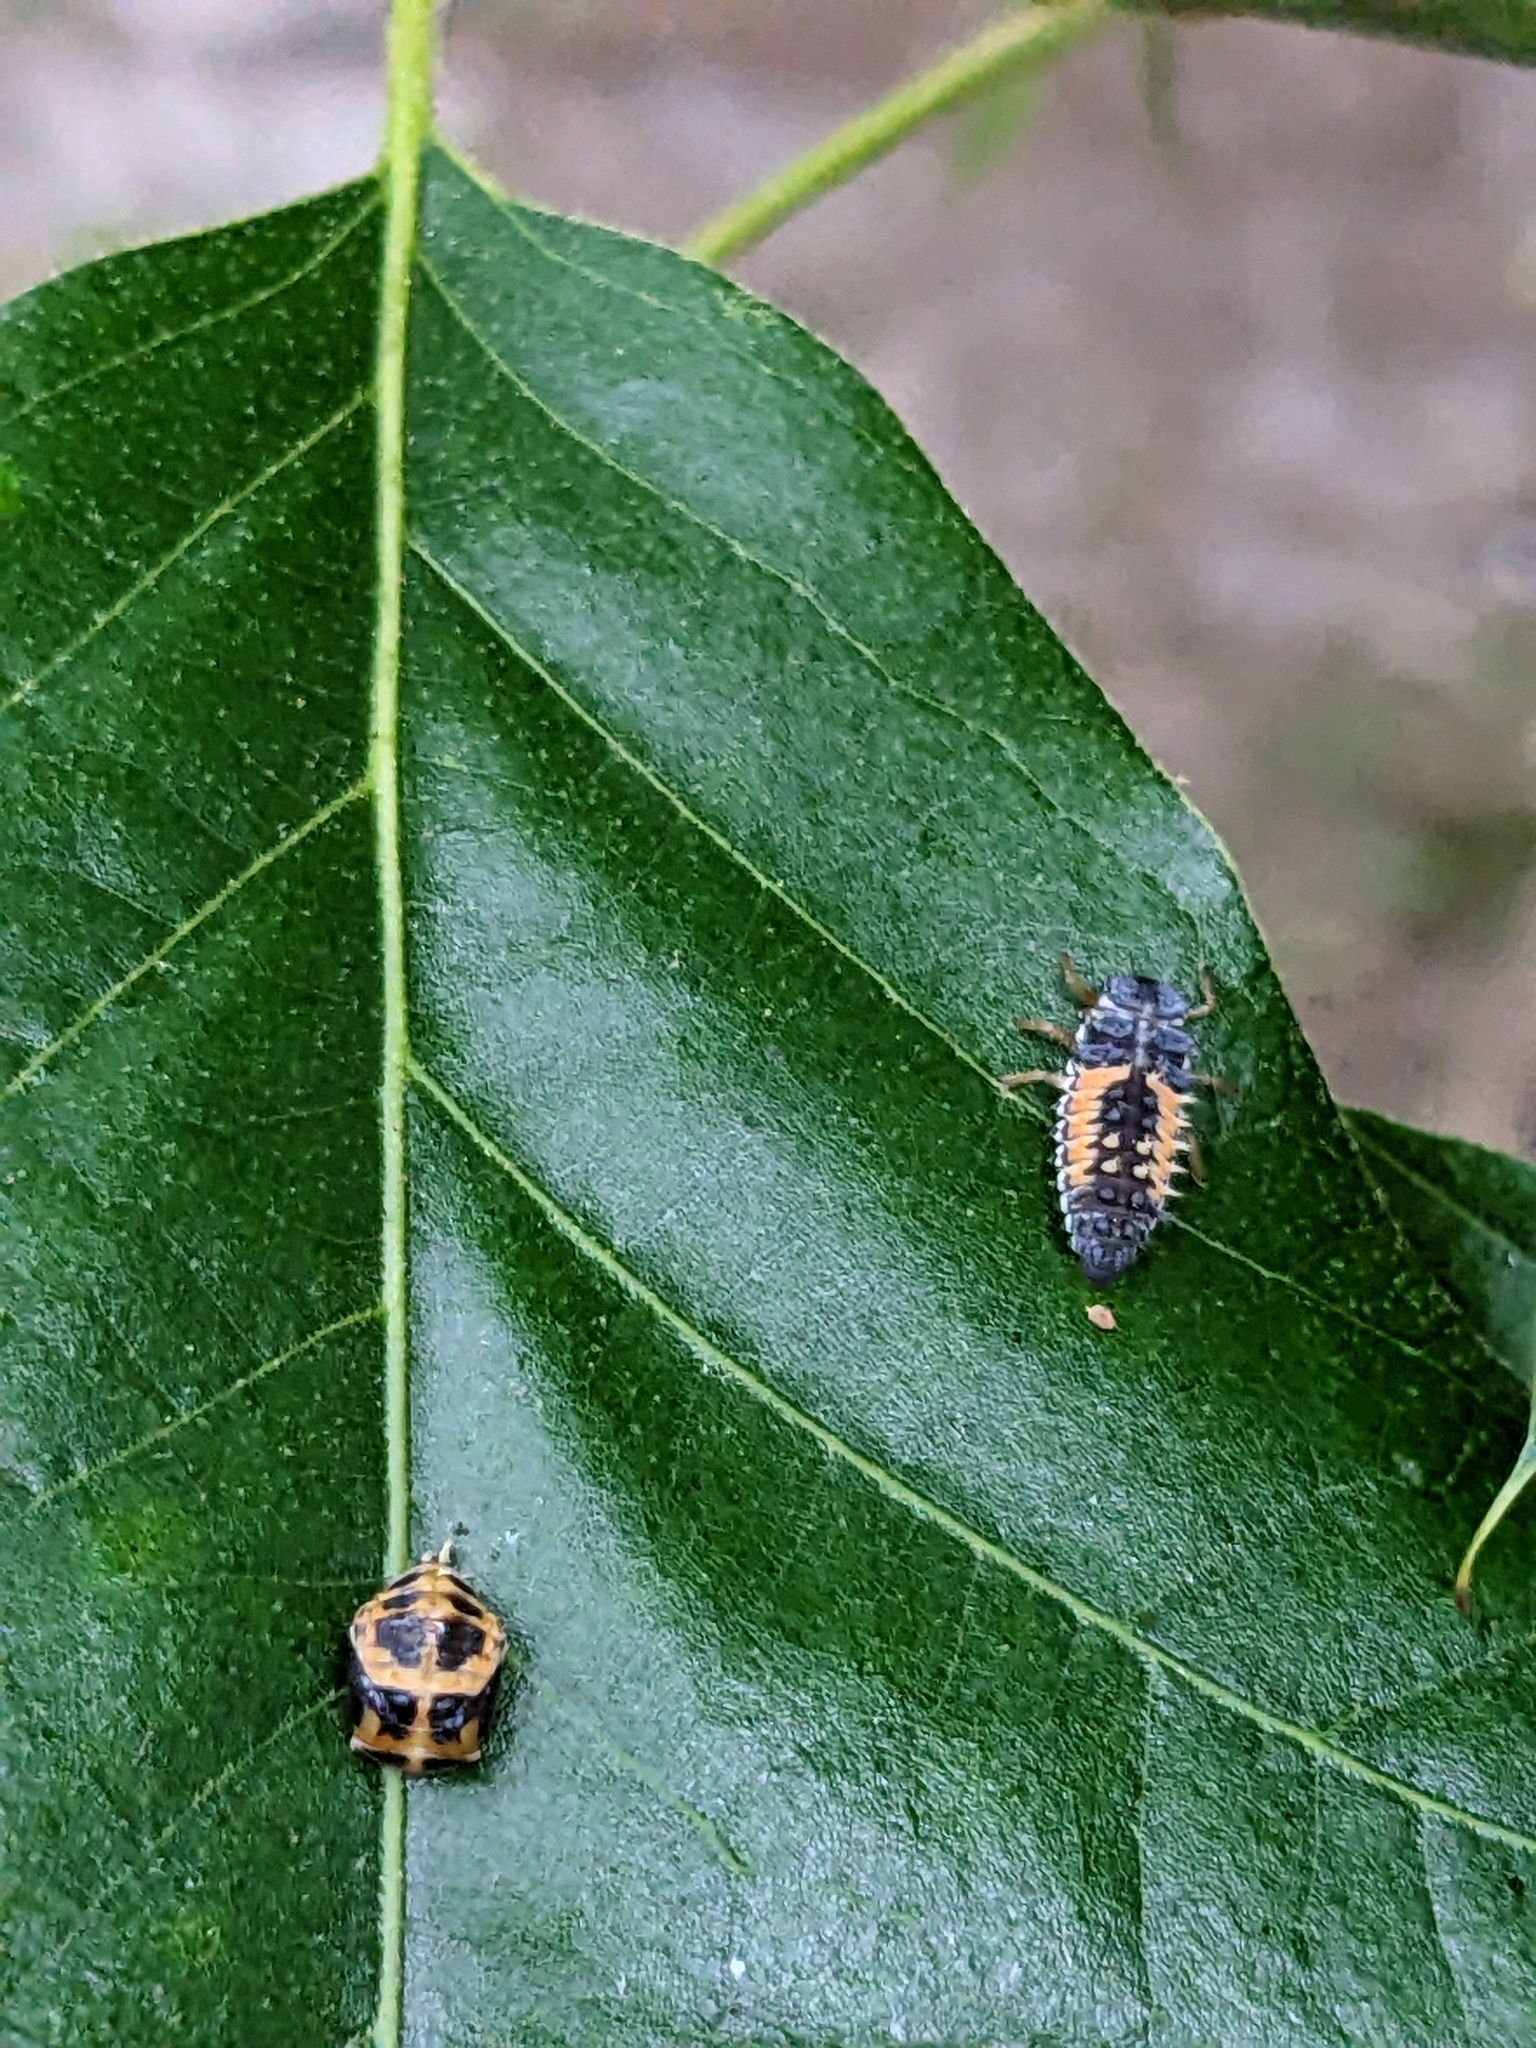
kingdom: Animalia
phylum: Arthropoda
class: Insecta
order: Coleoptera
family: Coccinellidae
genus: Harmonia
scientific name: Harmonia axyridis
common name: Harlequin ladybird
